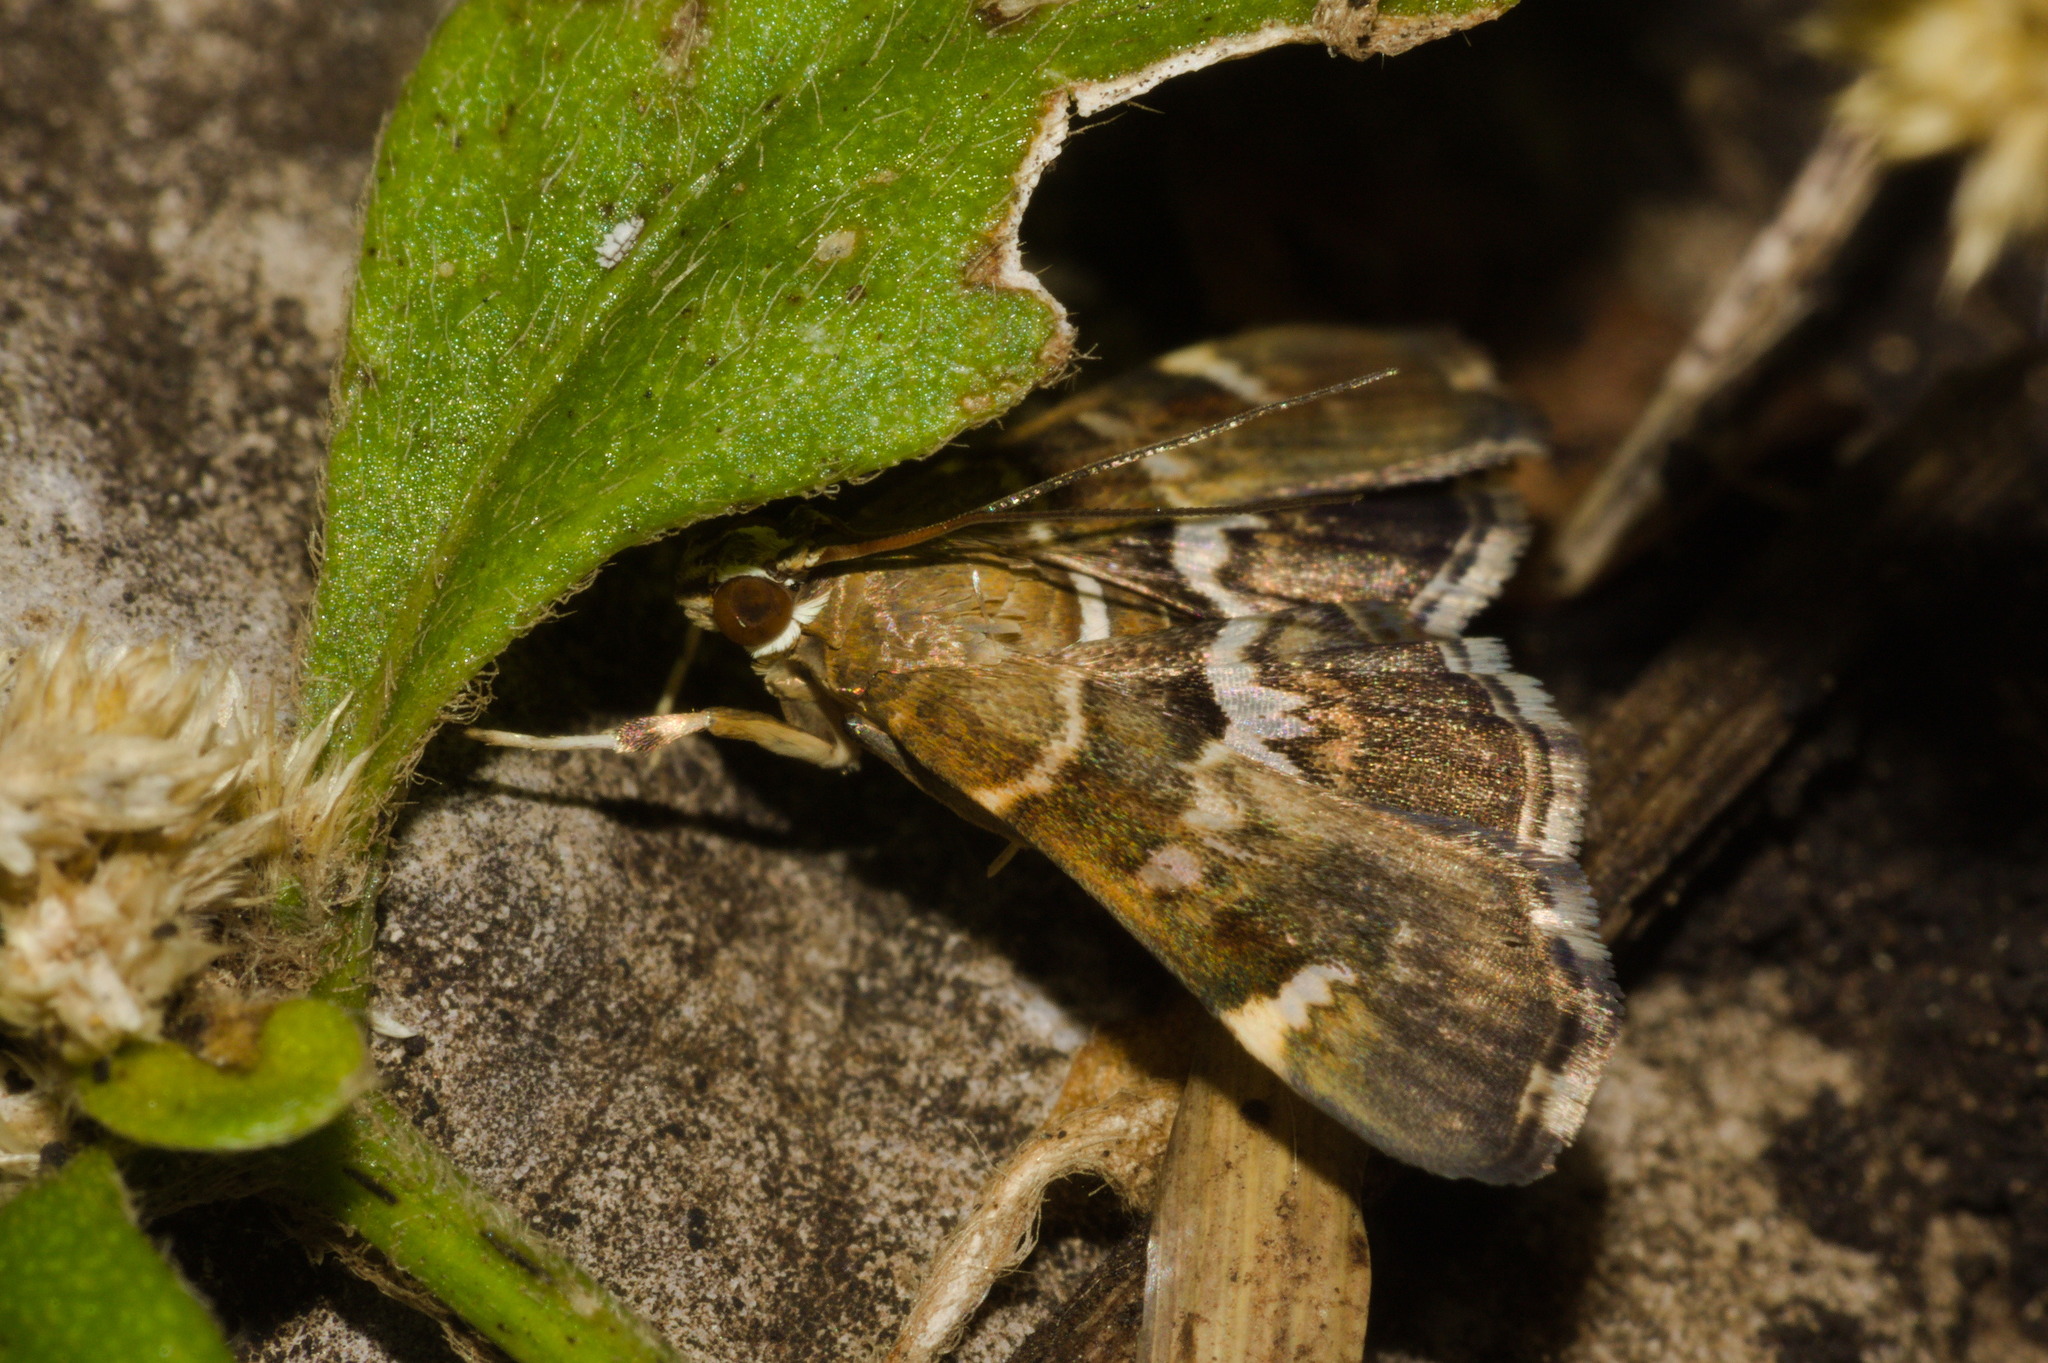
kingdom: Animalia
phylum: Arthropoda
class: Insecta
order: Lepidoptera
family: Crambidae
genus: Hymenia
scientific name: Hymenia perspectalis
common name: Spotted beet webworm
